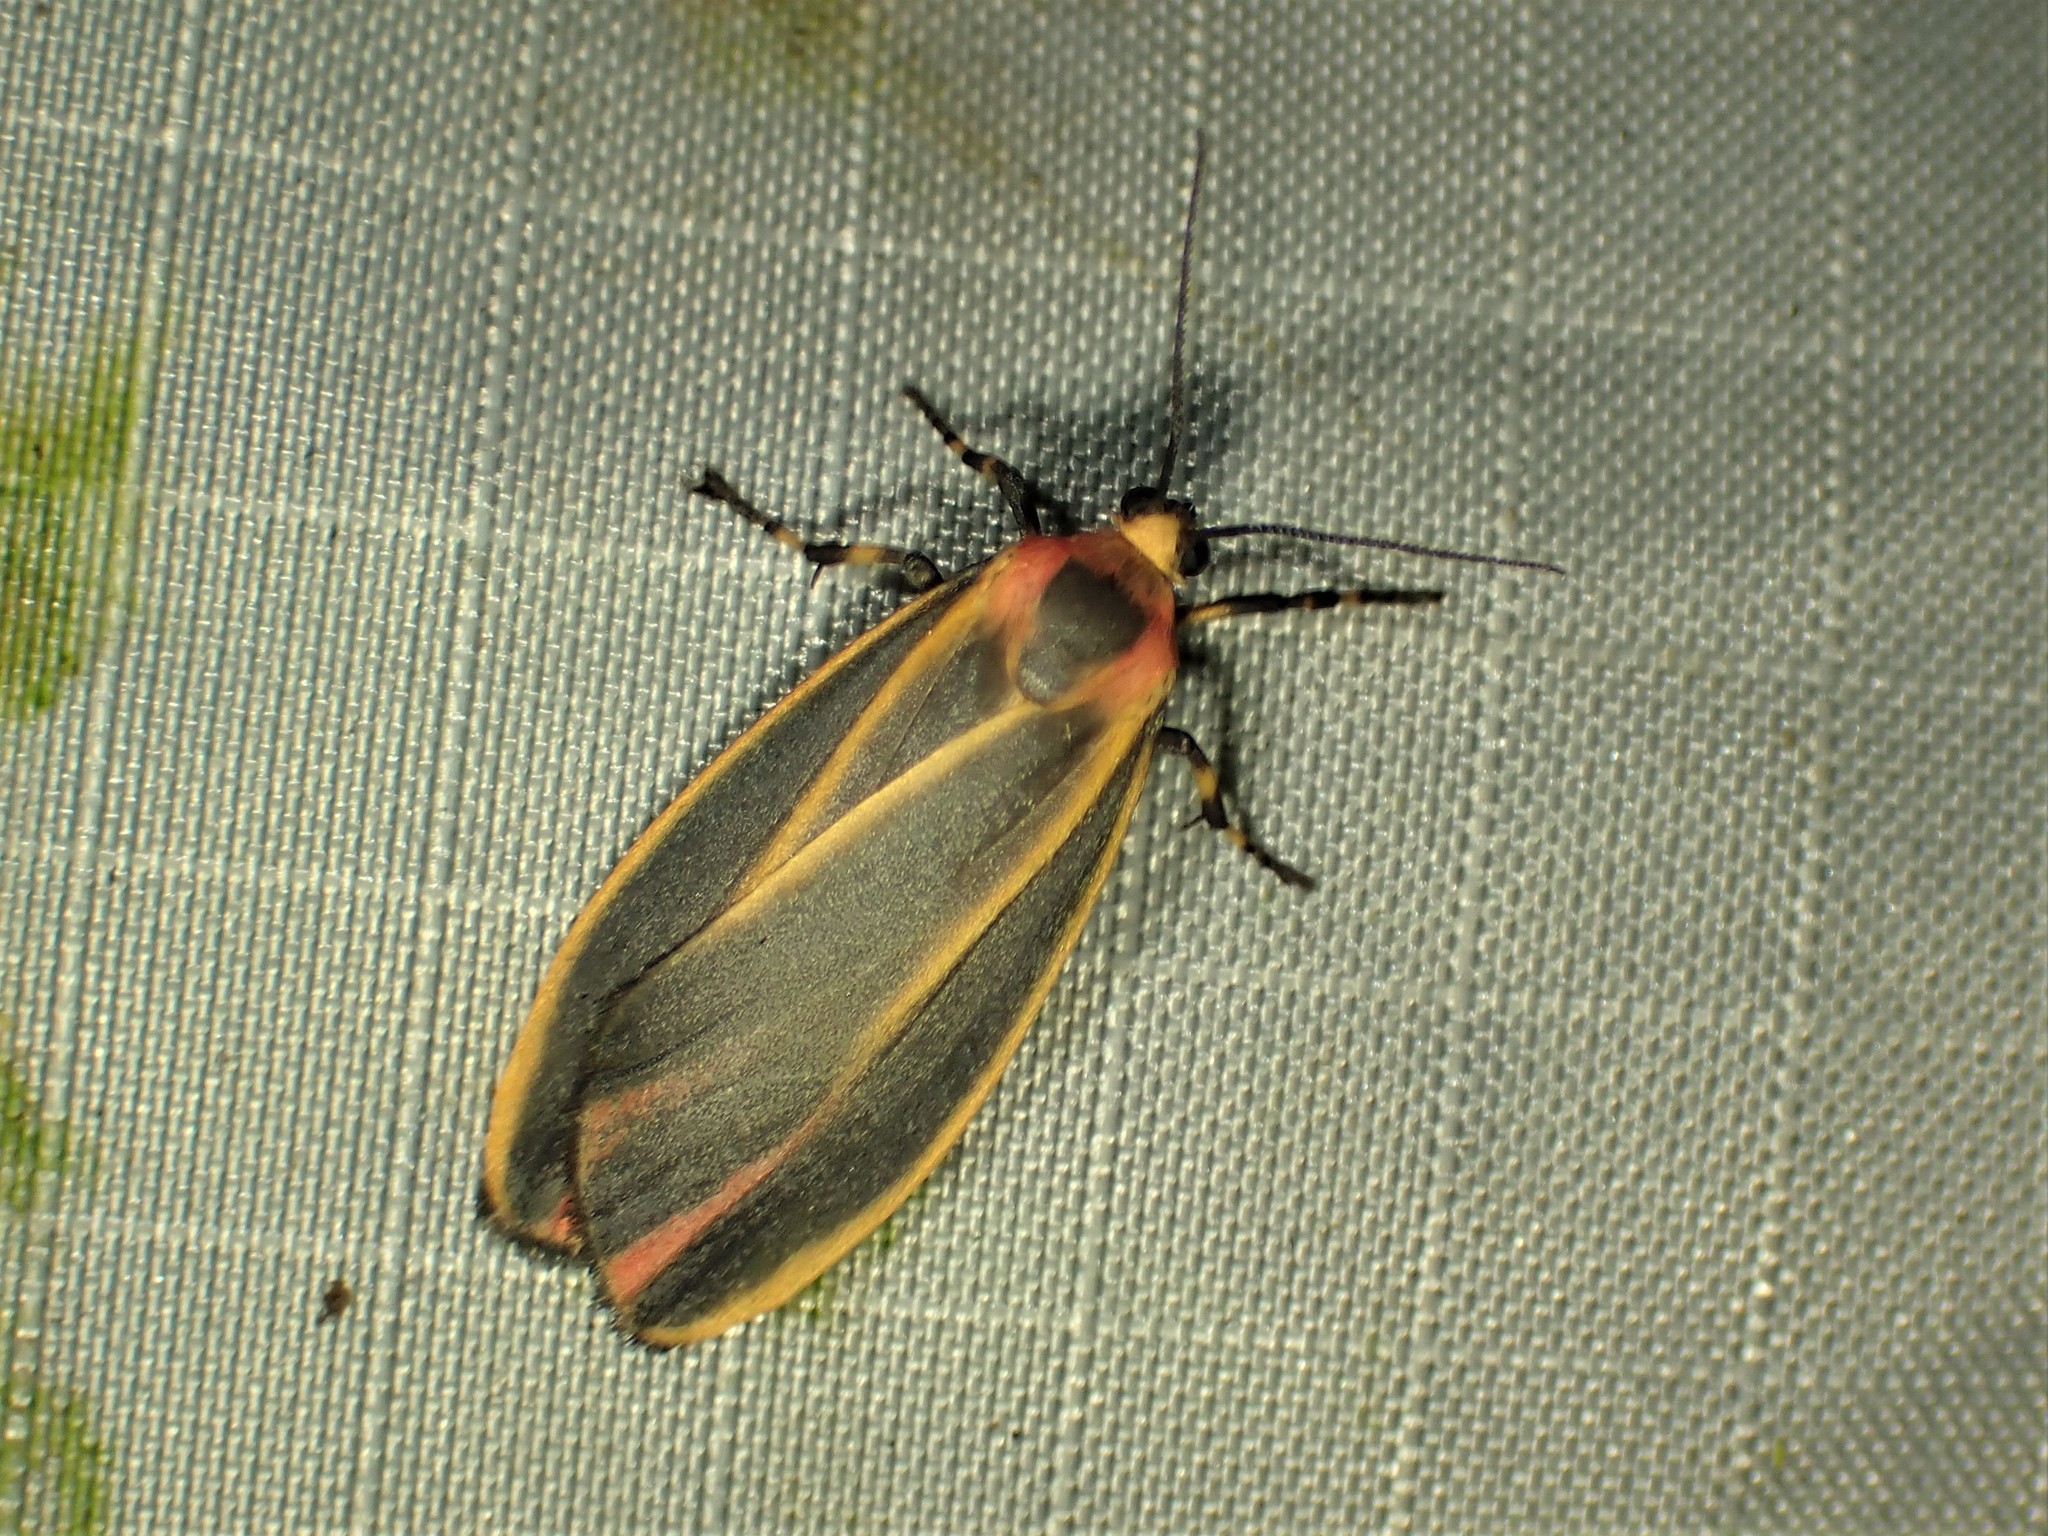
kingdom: Animalia
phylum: Arthropoda
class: Insecta
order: Lepidoptera
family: Erebidae
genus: Hypoprepia
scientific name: Hypoprepia fucosa
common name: Painted lichen moth
